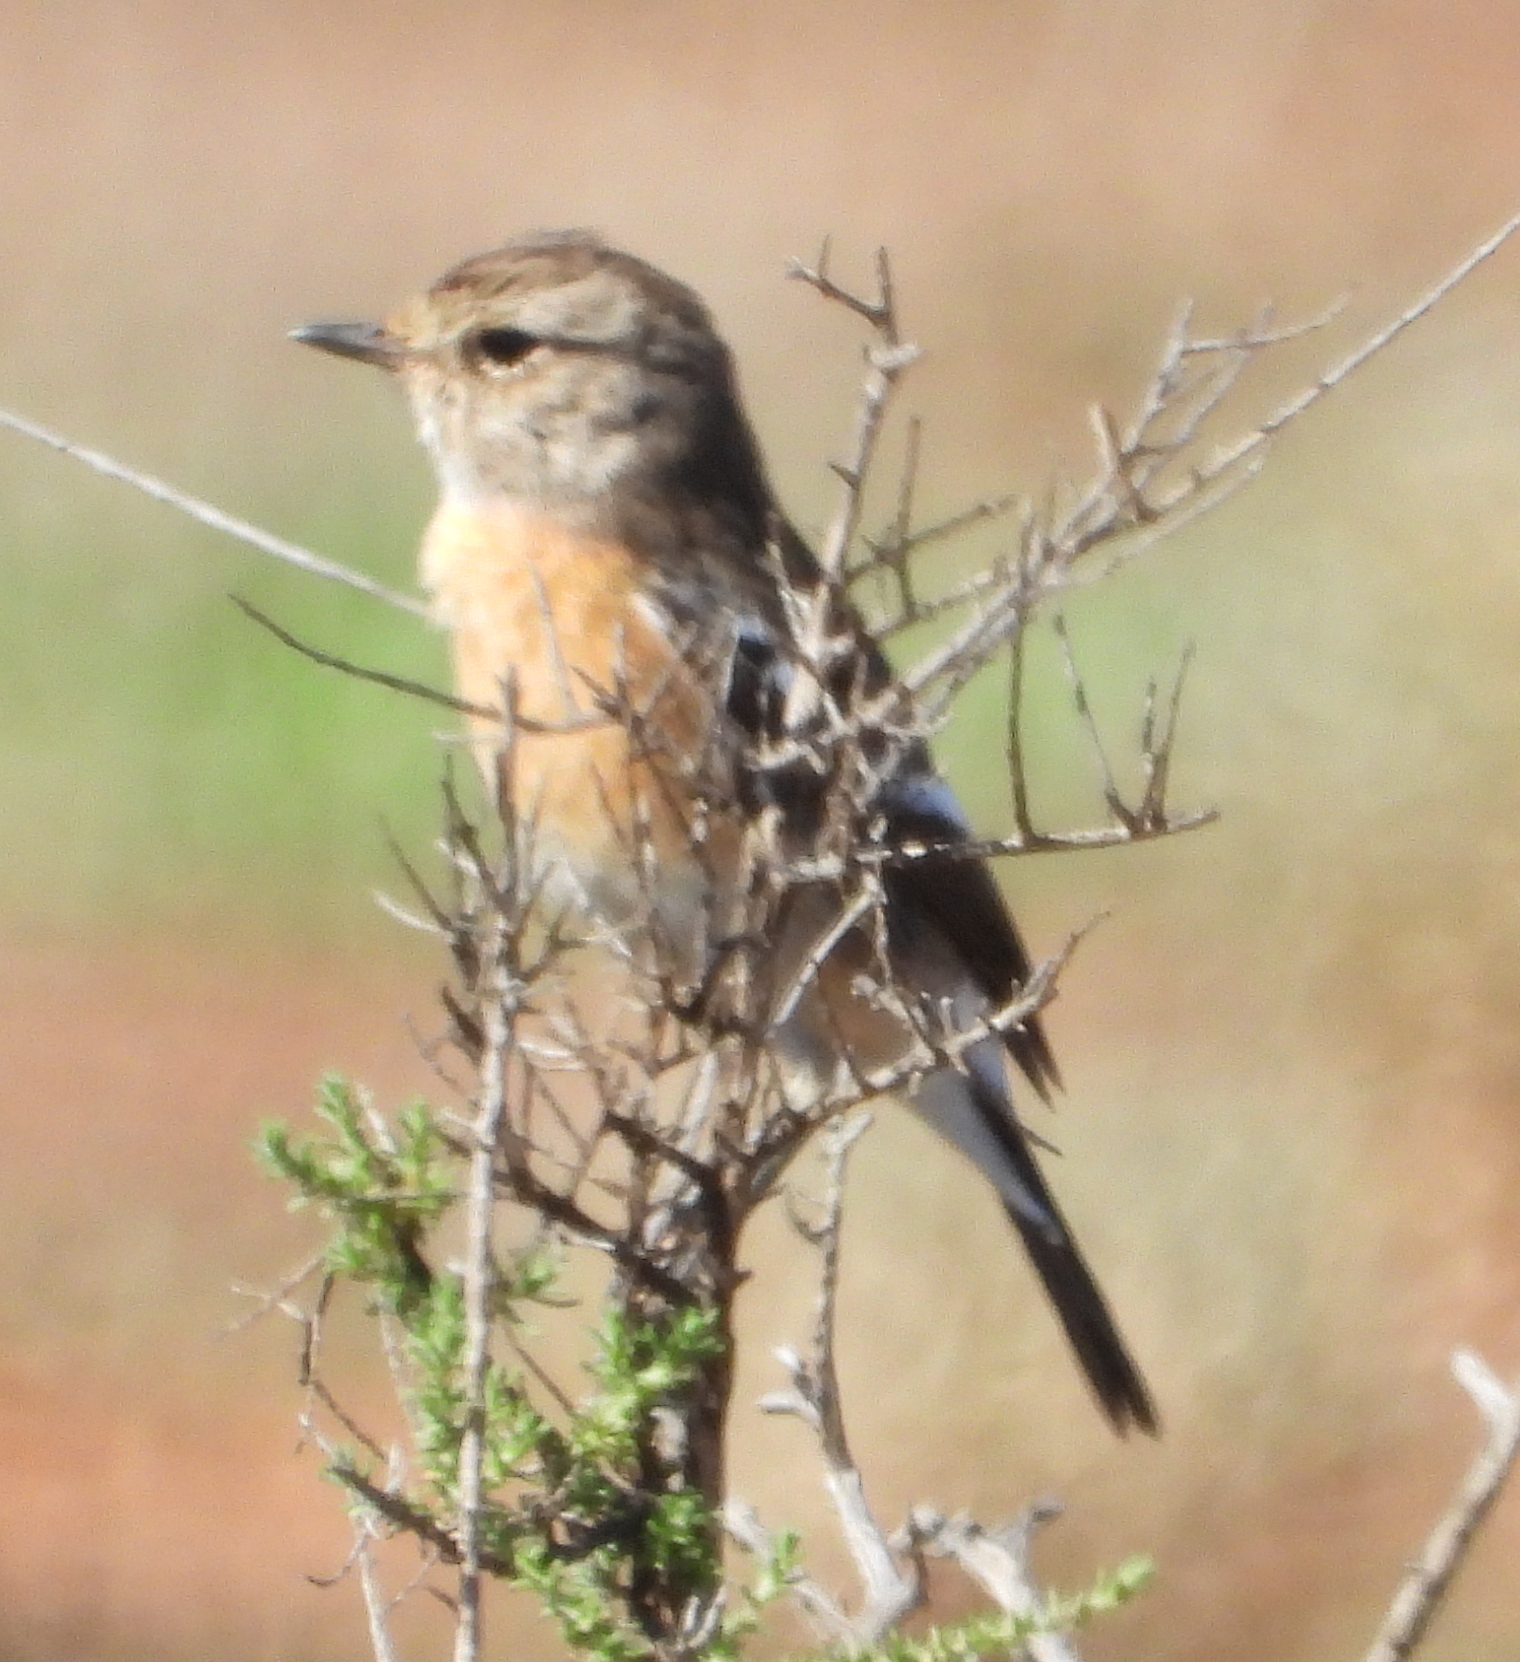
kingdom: Animalia
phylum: Chordata
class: Aves
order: Passeriformes
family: Muscicapidae
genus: Saxicola
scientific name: Saxicola torquatus
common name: African stonechat
